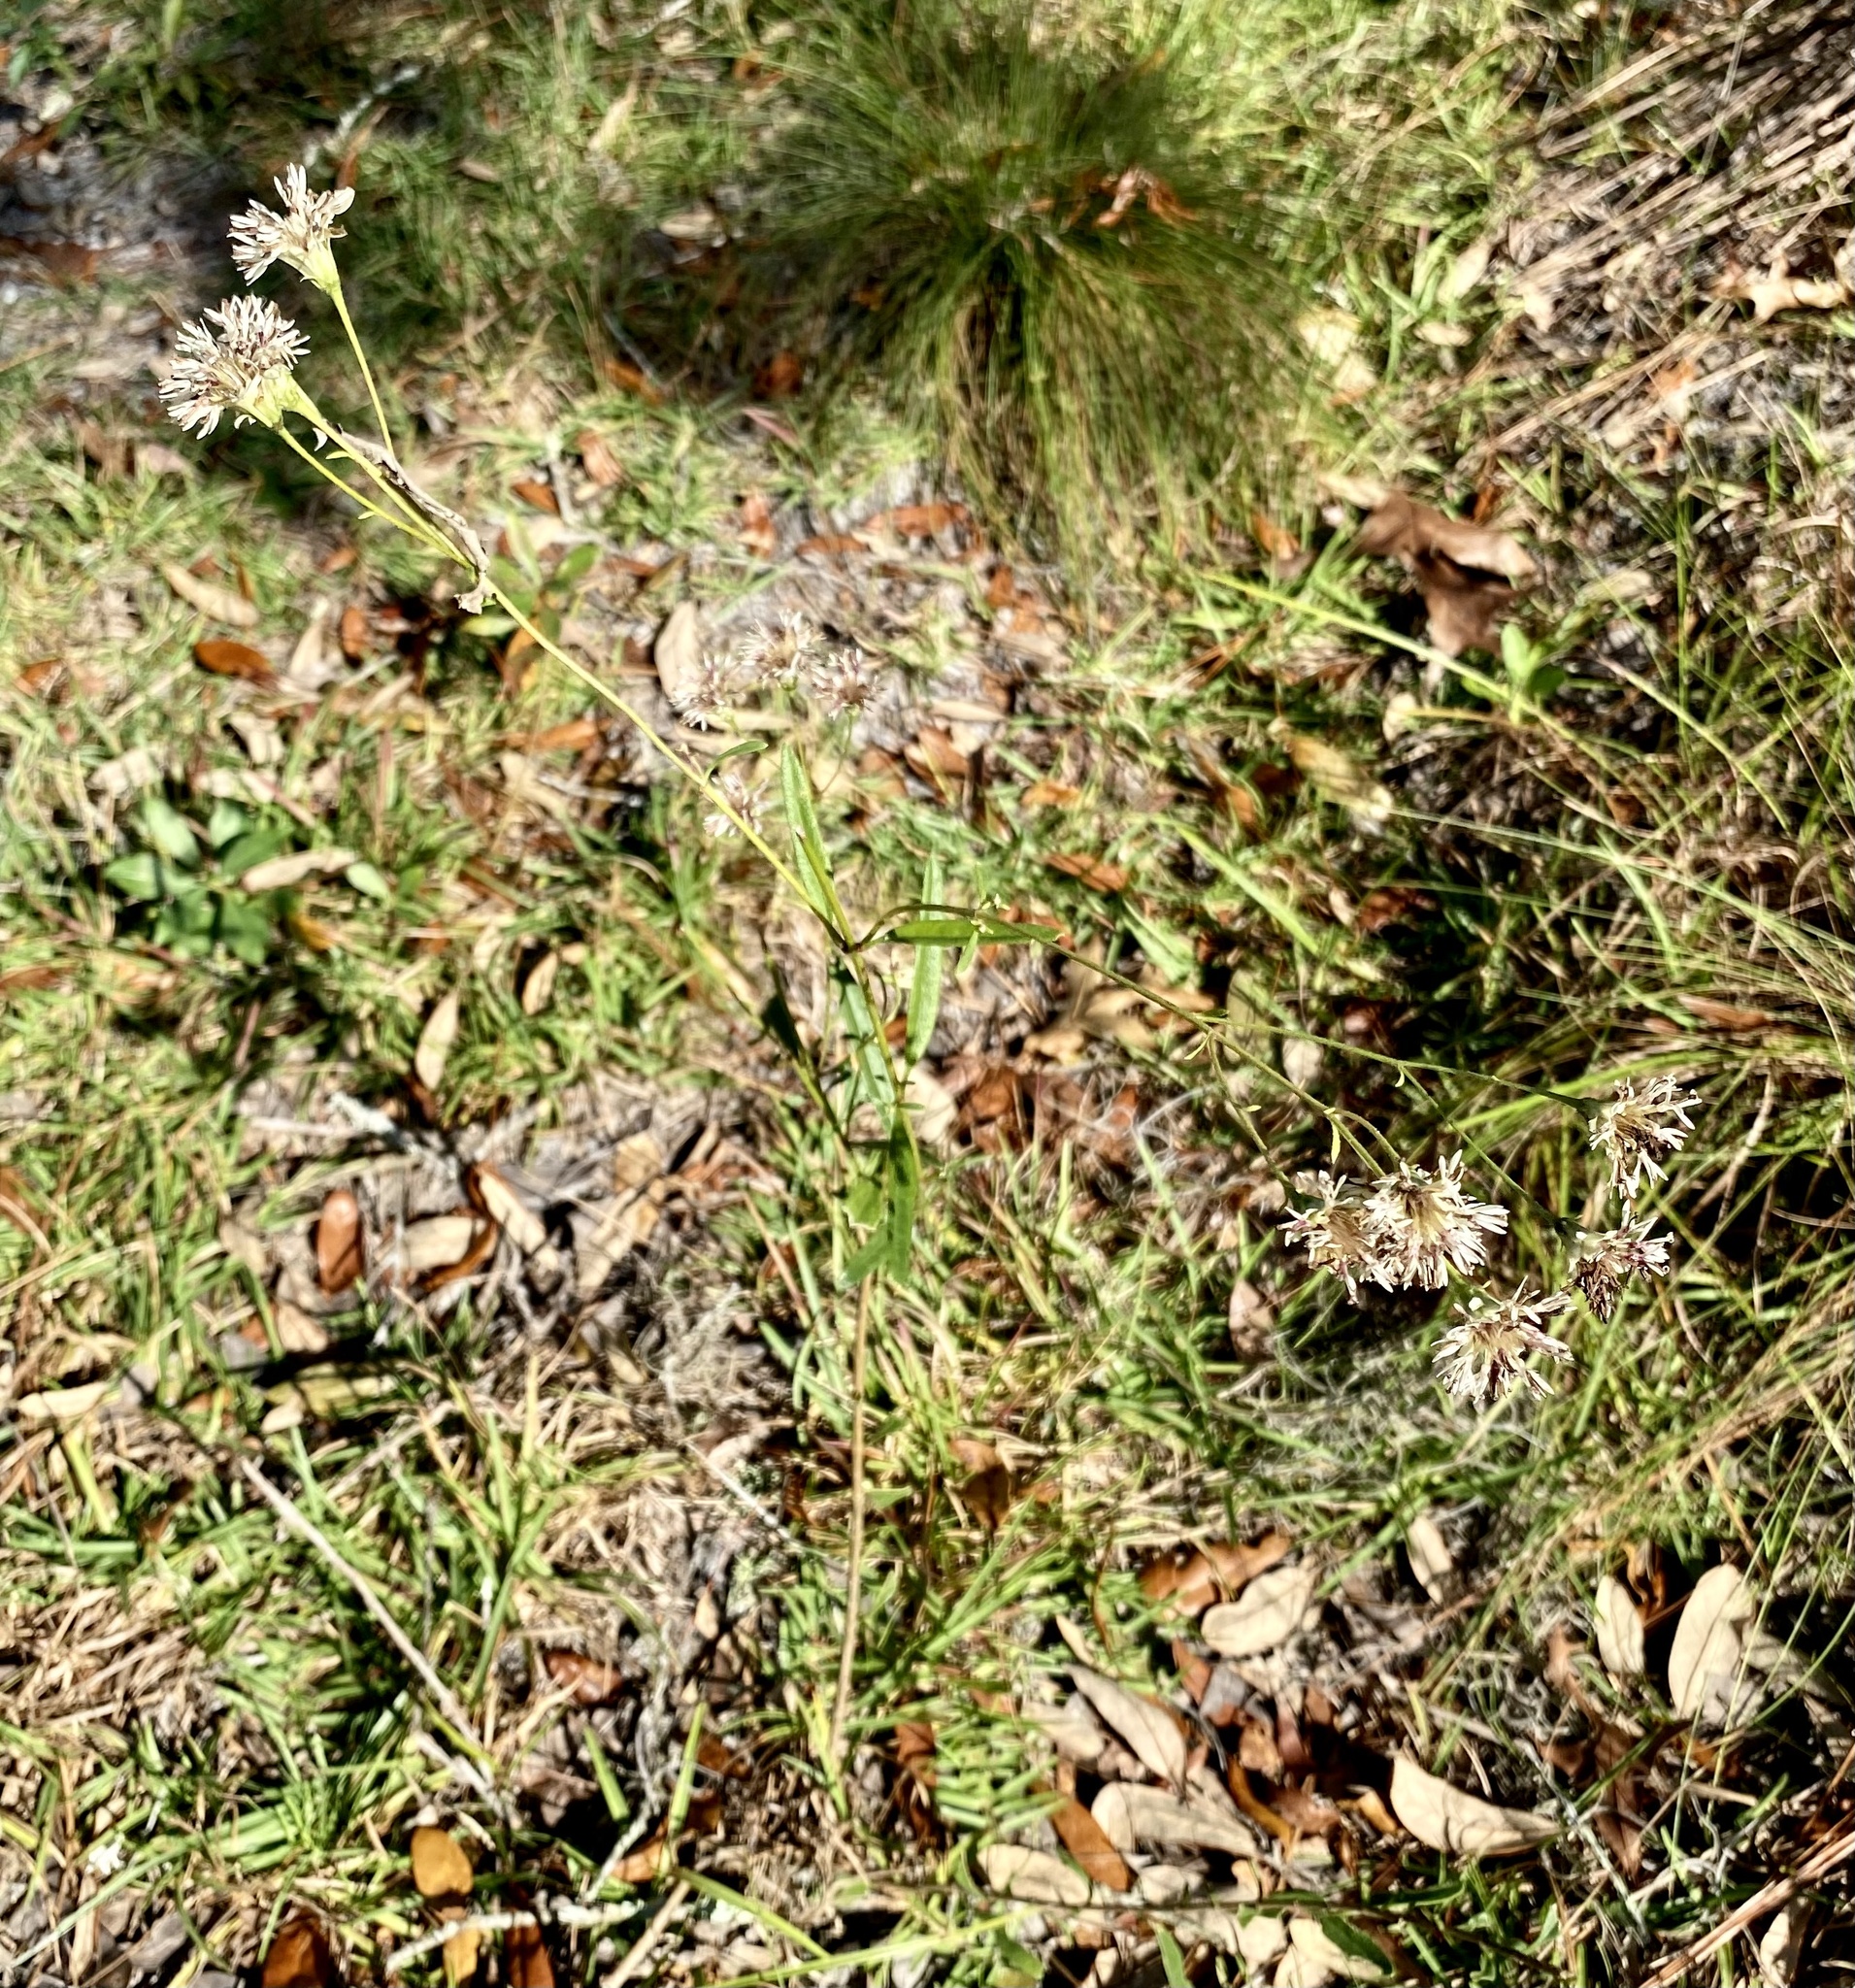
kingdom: Plantae
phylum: Tracheophyta
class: Magnoliopsida
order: Asterales
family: Asteraceae
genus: Palafoxia
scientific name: Palafoxia integrifolia
